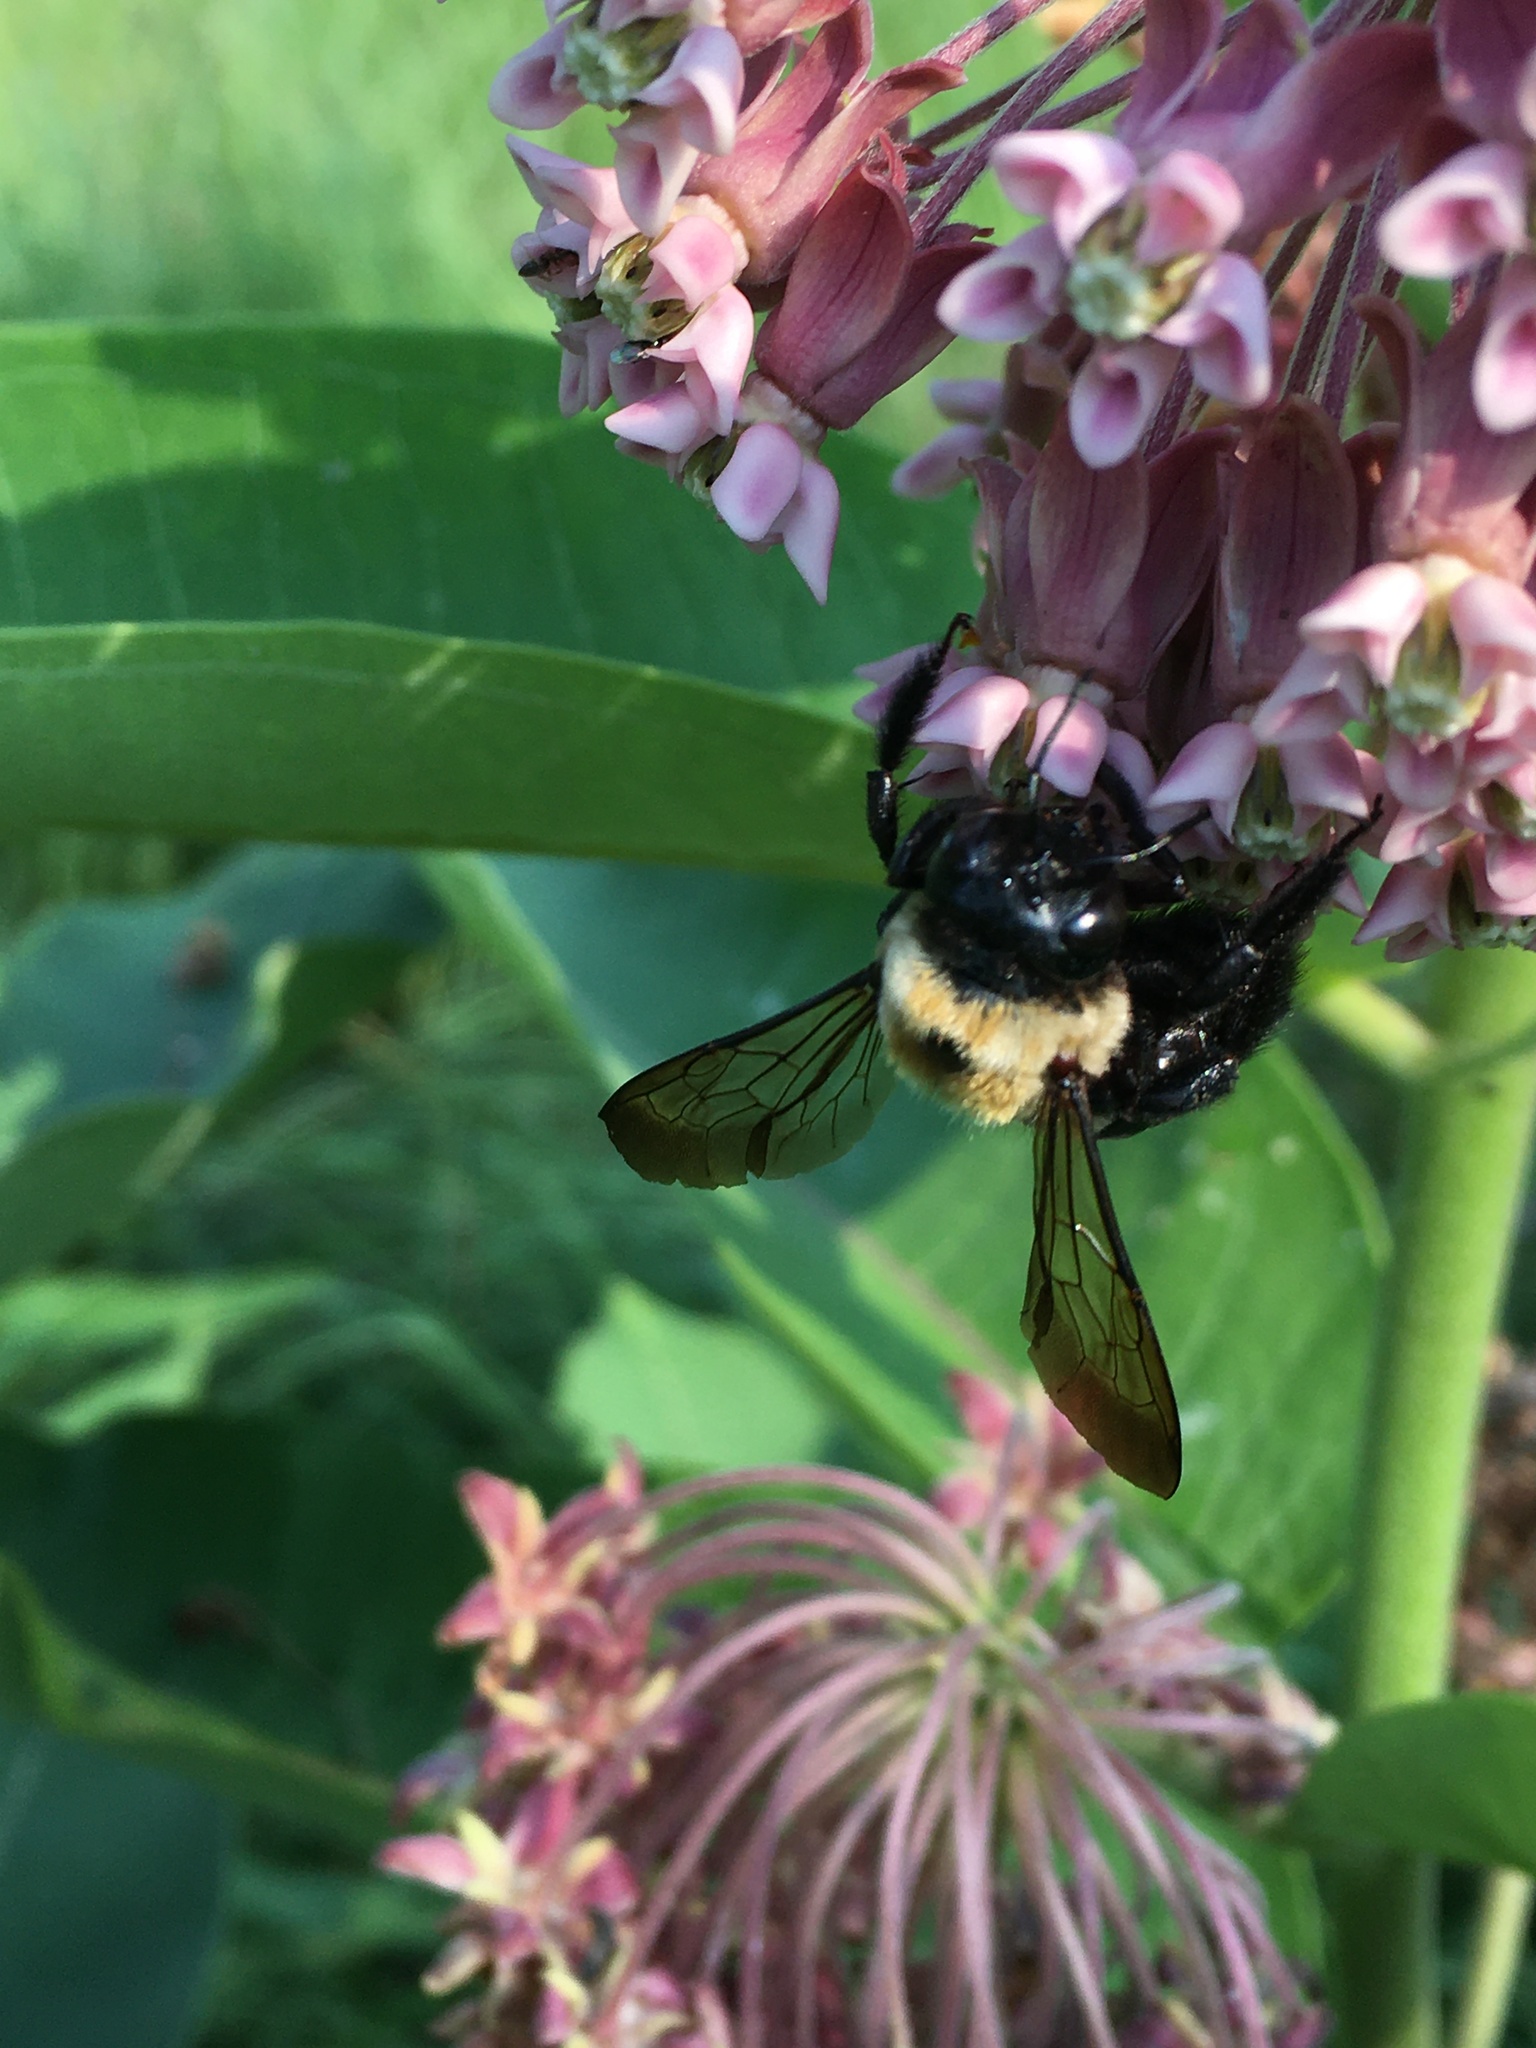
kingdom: Animalia
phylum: Arthropoda
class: Insecta
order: Hymenoptera
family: Apidae
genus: Xylocopa
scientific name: Xylocopa virginica
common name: Carpenter bee
